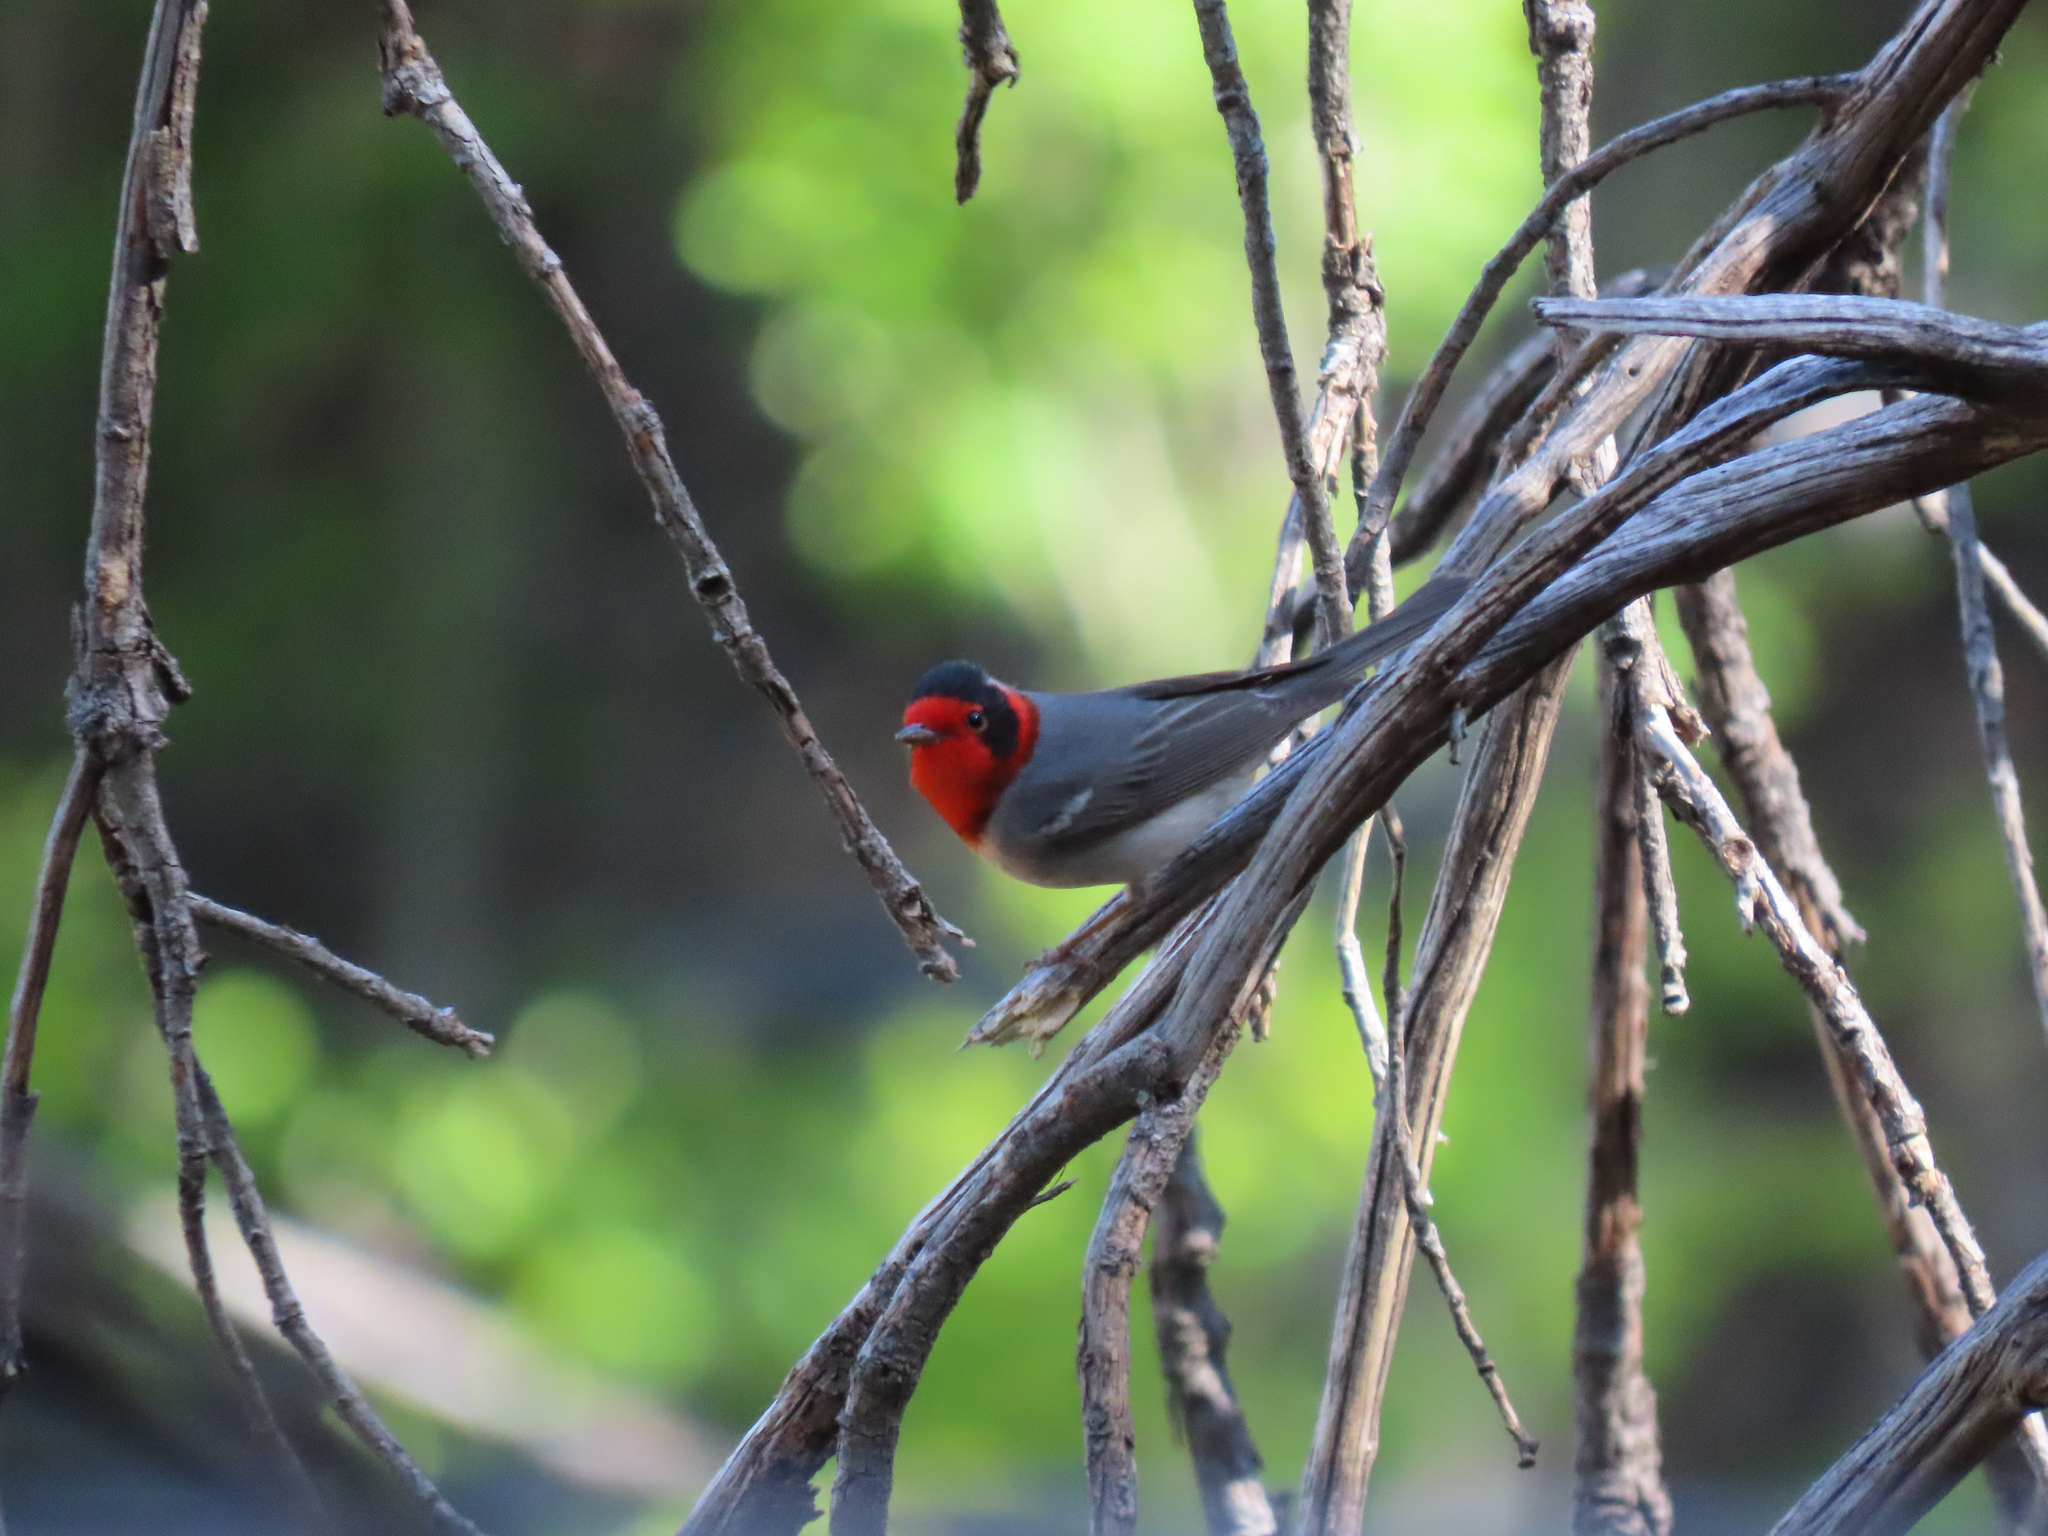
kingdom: Animalia
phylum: Chordata
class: Aves
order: Passeriformes
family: Parulidae
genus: Cardellina
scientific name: Cardellina rubrifrons
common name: Red-faced warbler
